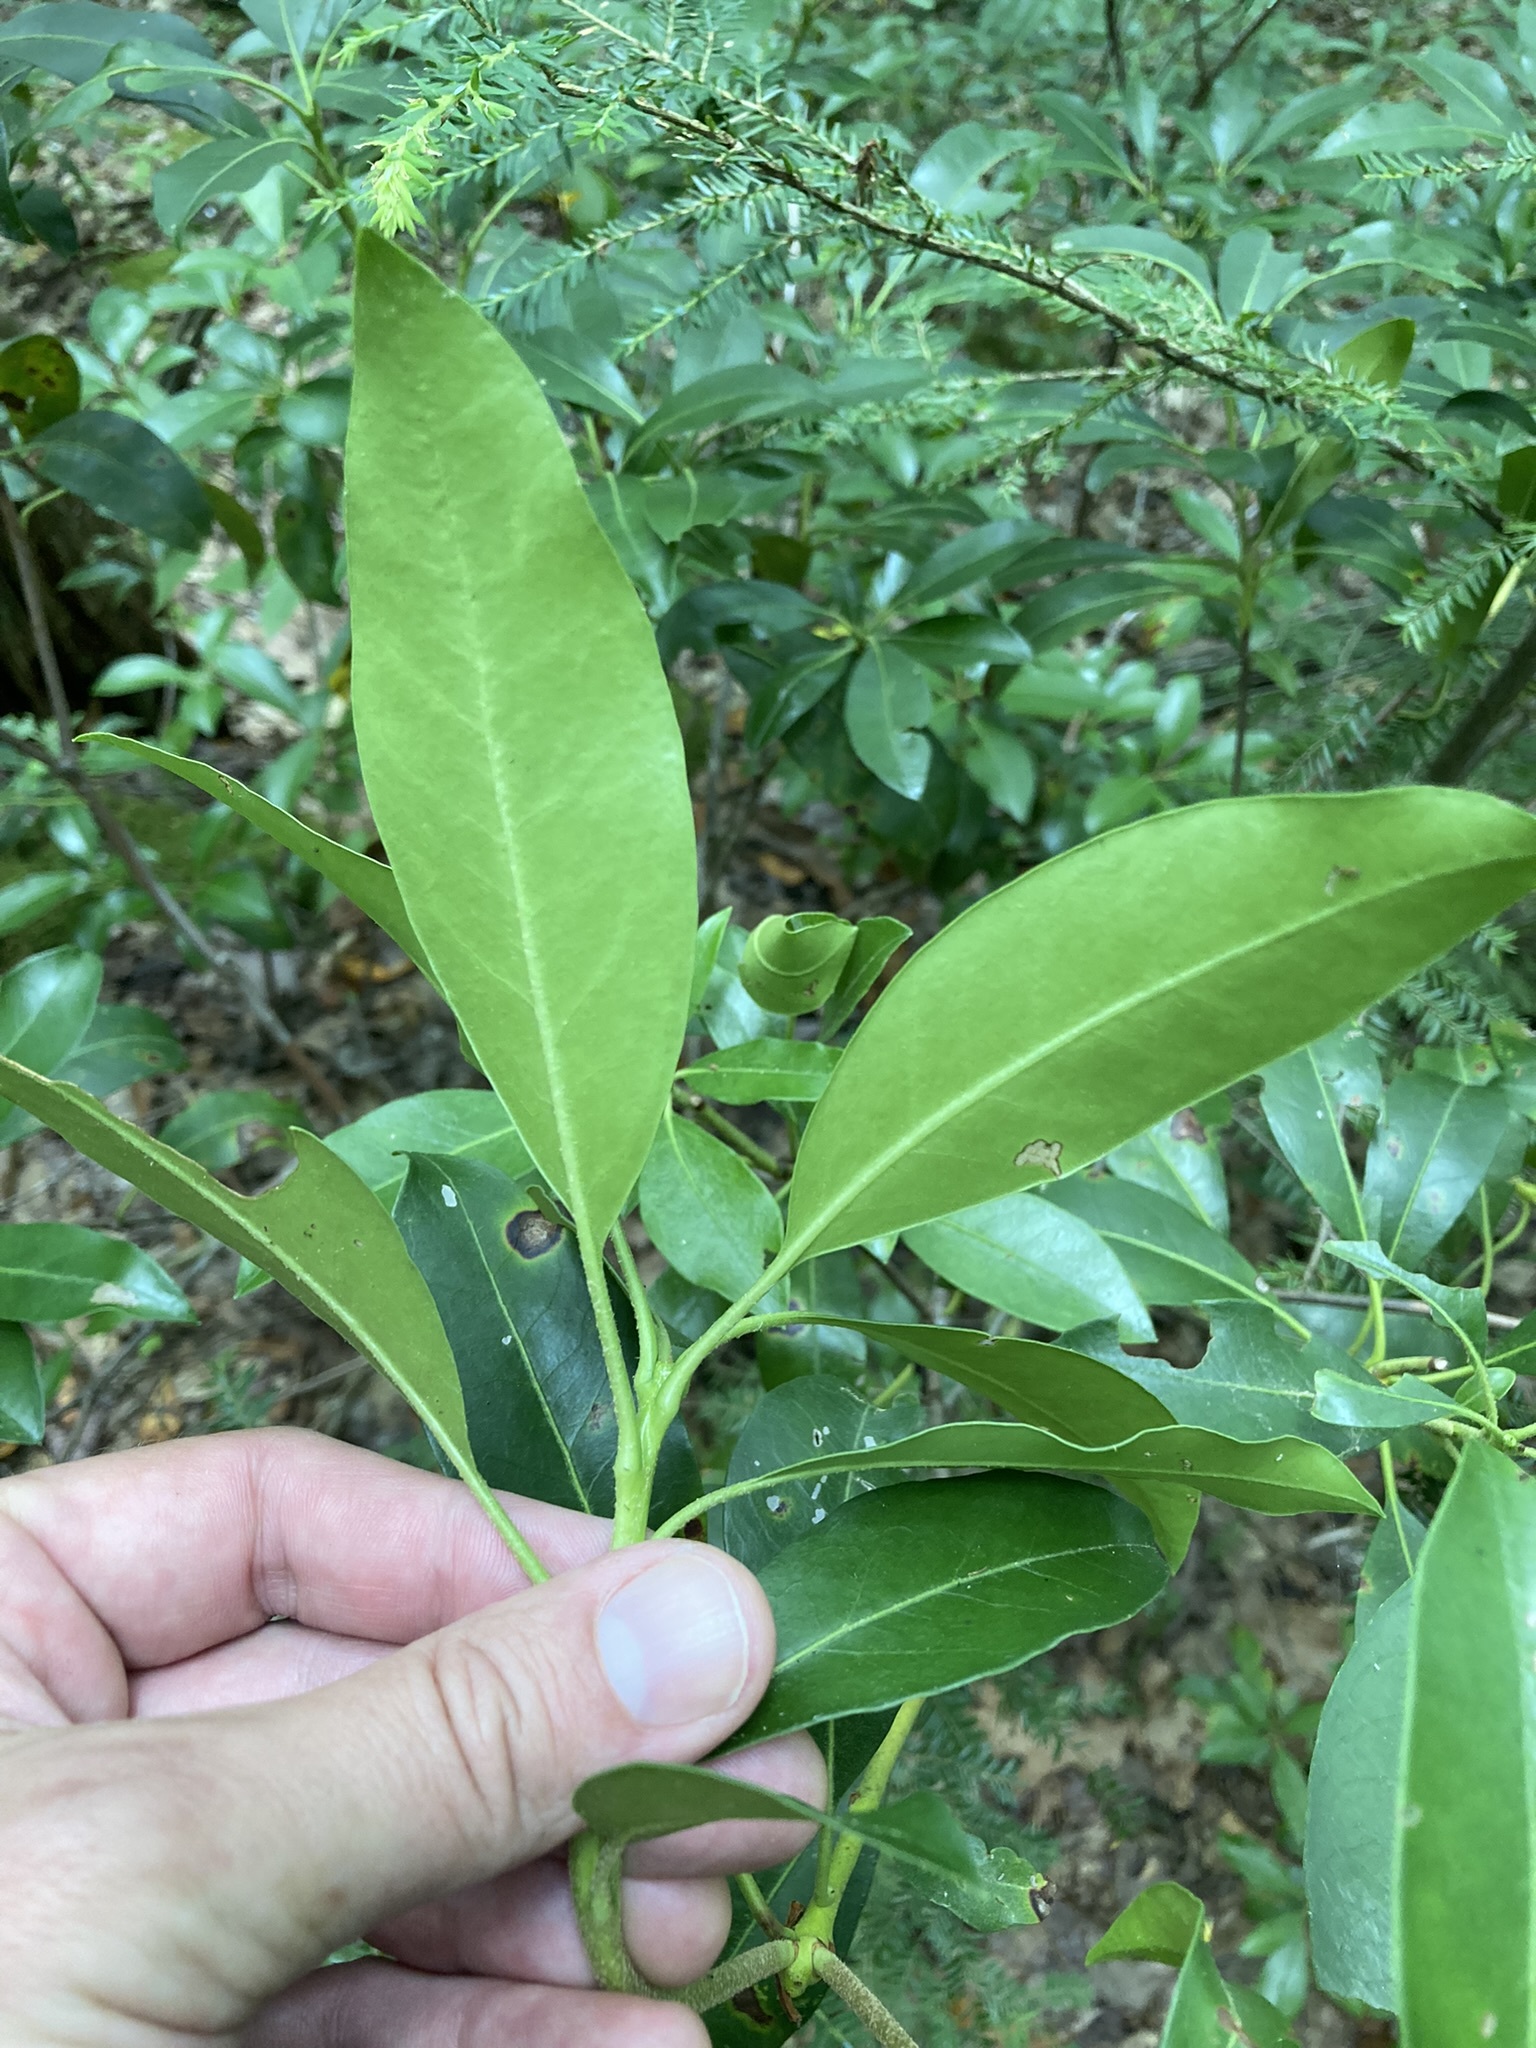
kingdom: Plantae
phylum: Tracheophyta
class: Magnoliopsida
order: Ericales
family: Ericaceae
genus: Kalmia
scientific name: Kalmia latifolia
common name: Mountain-laurel
